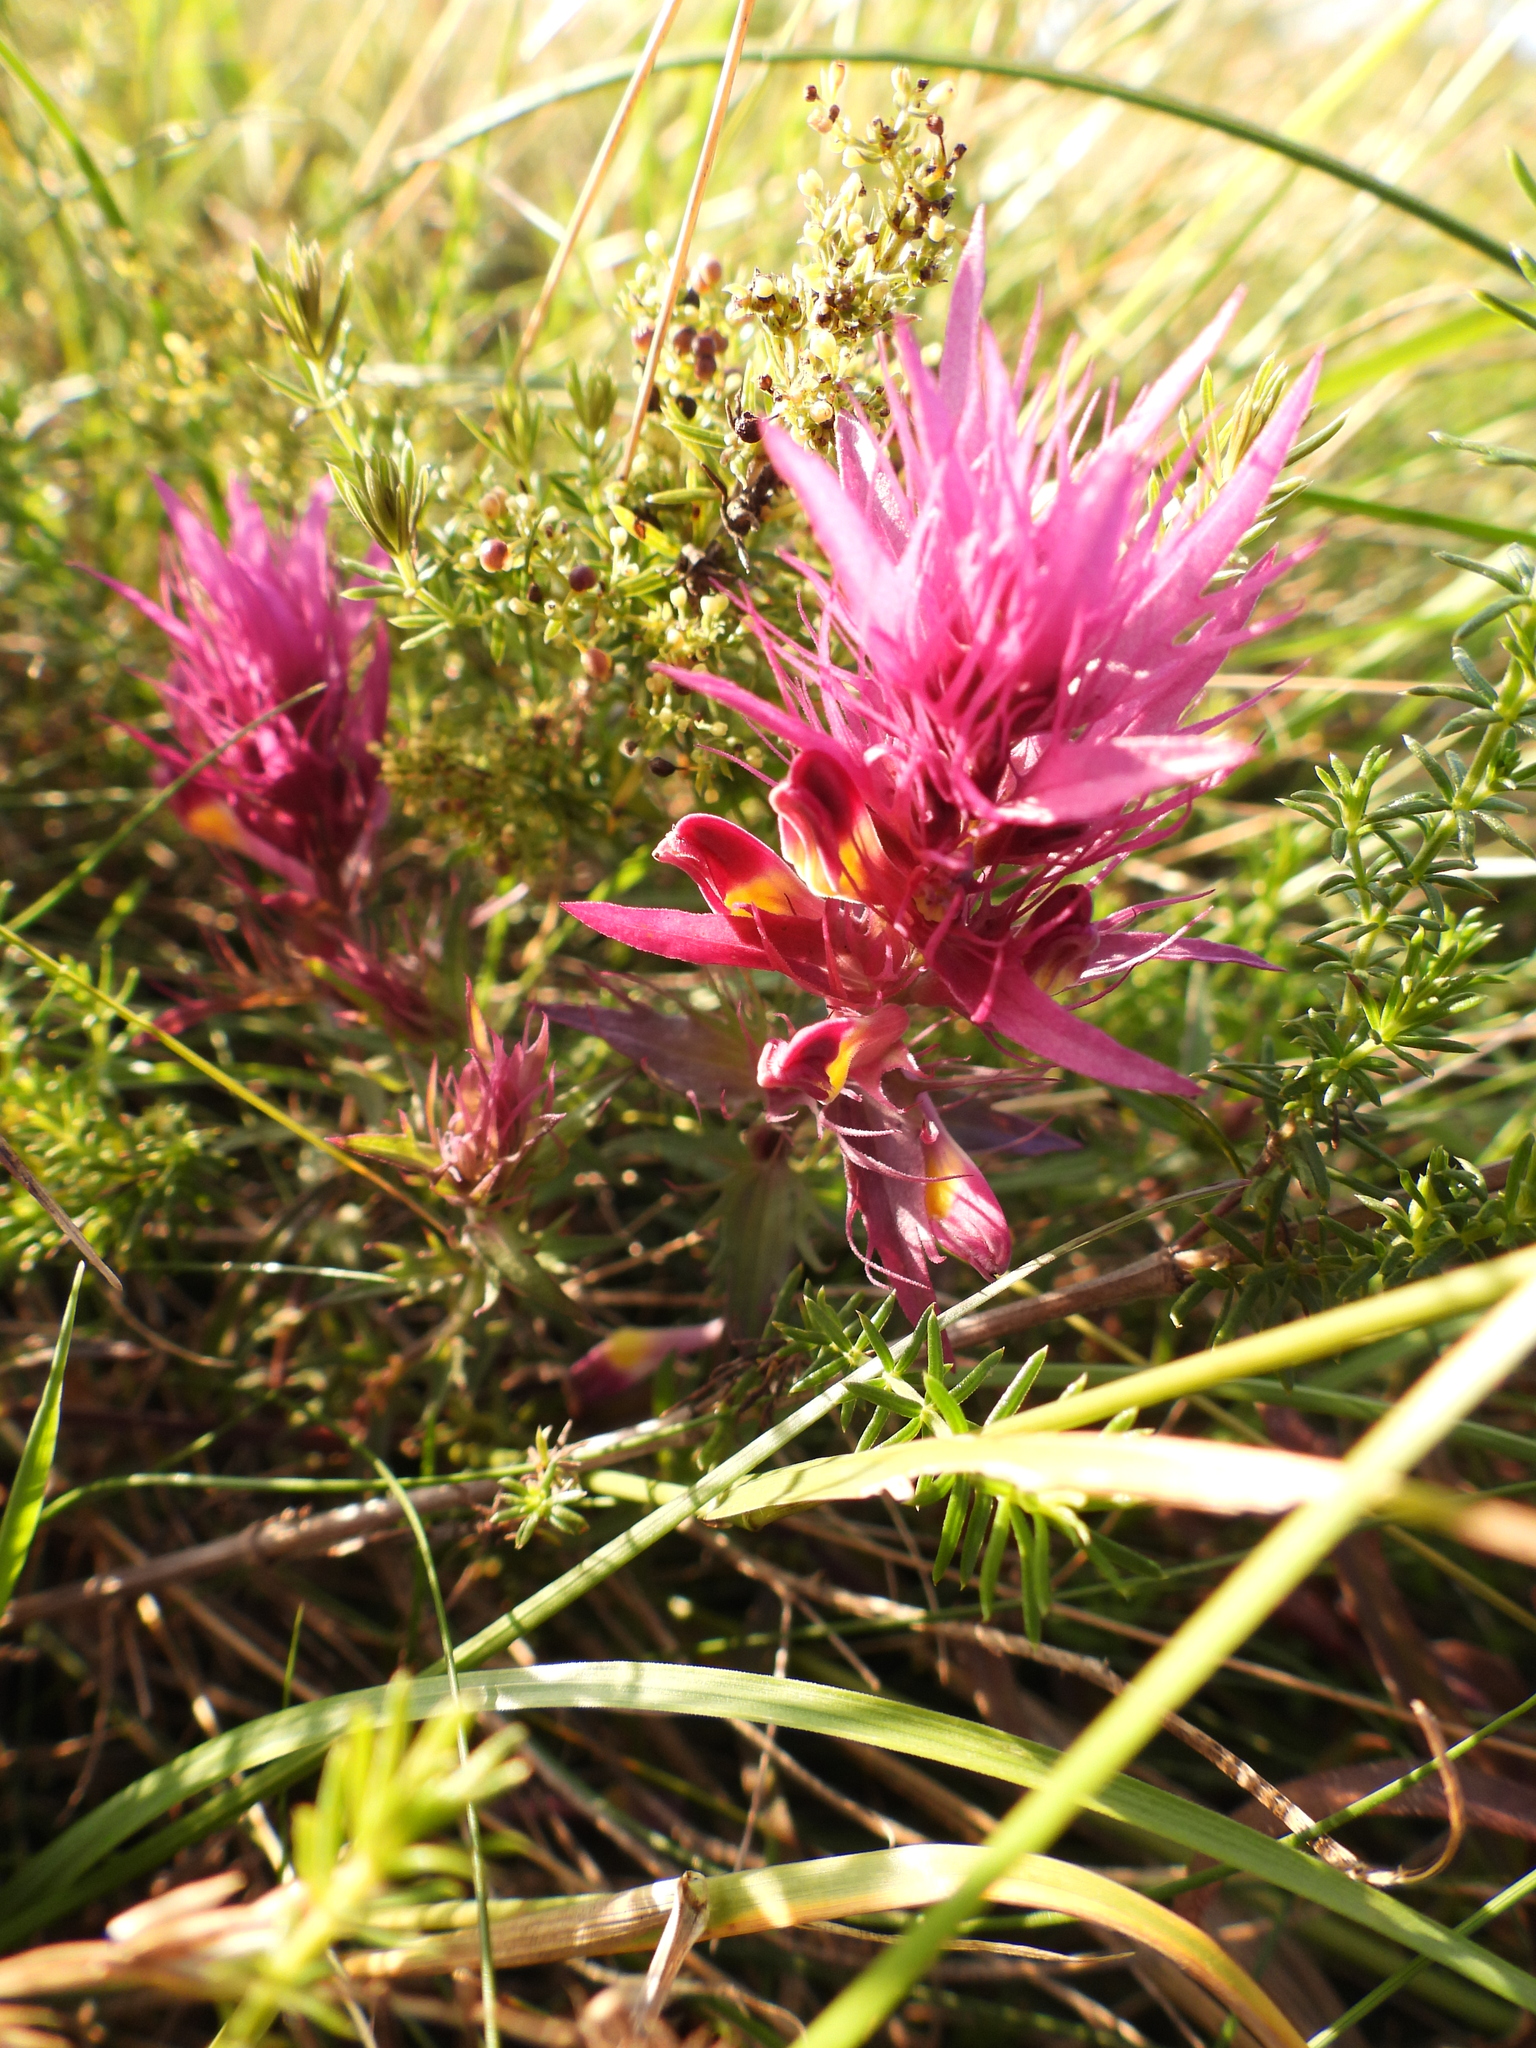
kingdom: Plantae
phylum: Tracheophyta
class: Magnoliopsida
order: Lamiales
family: Orobanchaceae
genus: Melampyrum
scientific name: Melampyrum arvense
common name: Field cow-wheat
